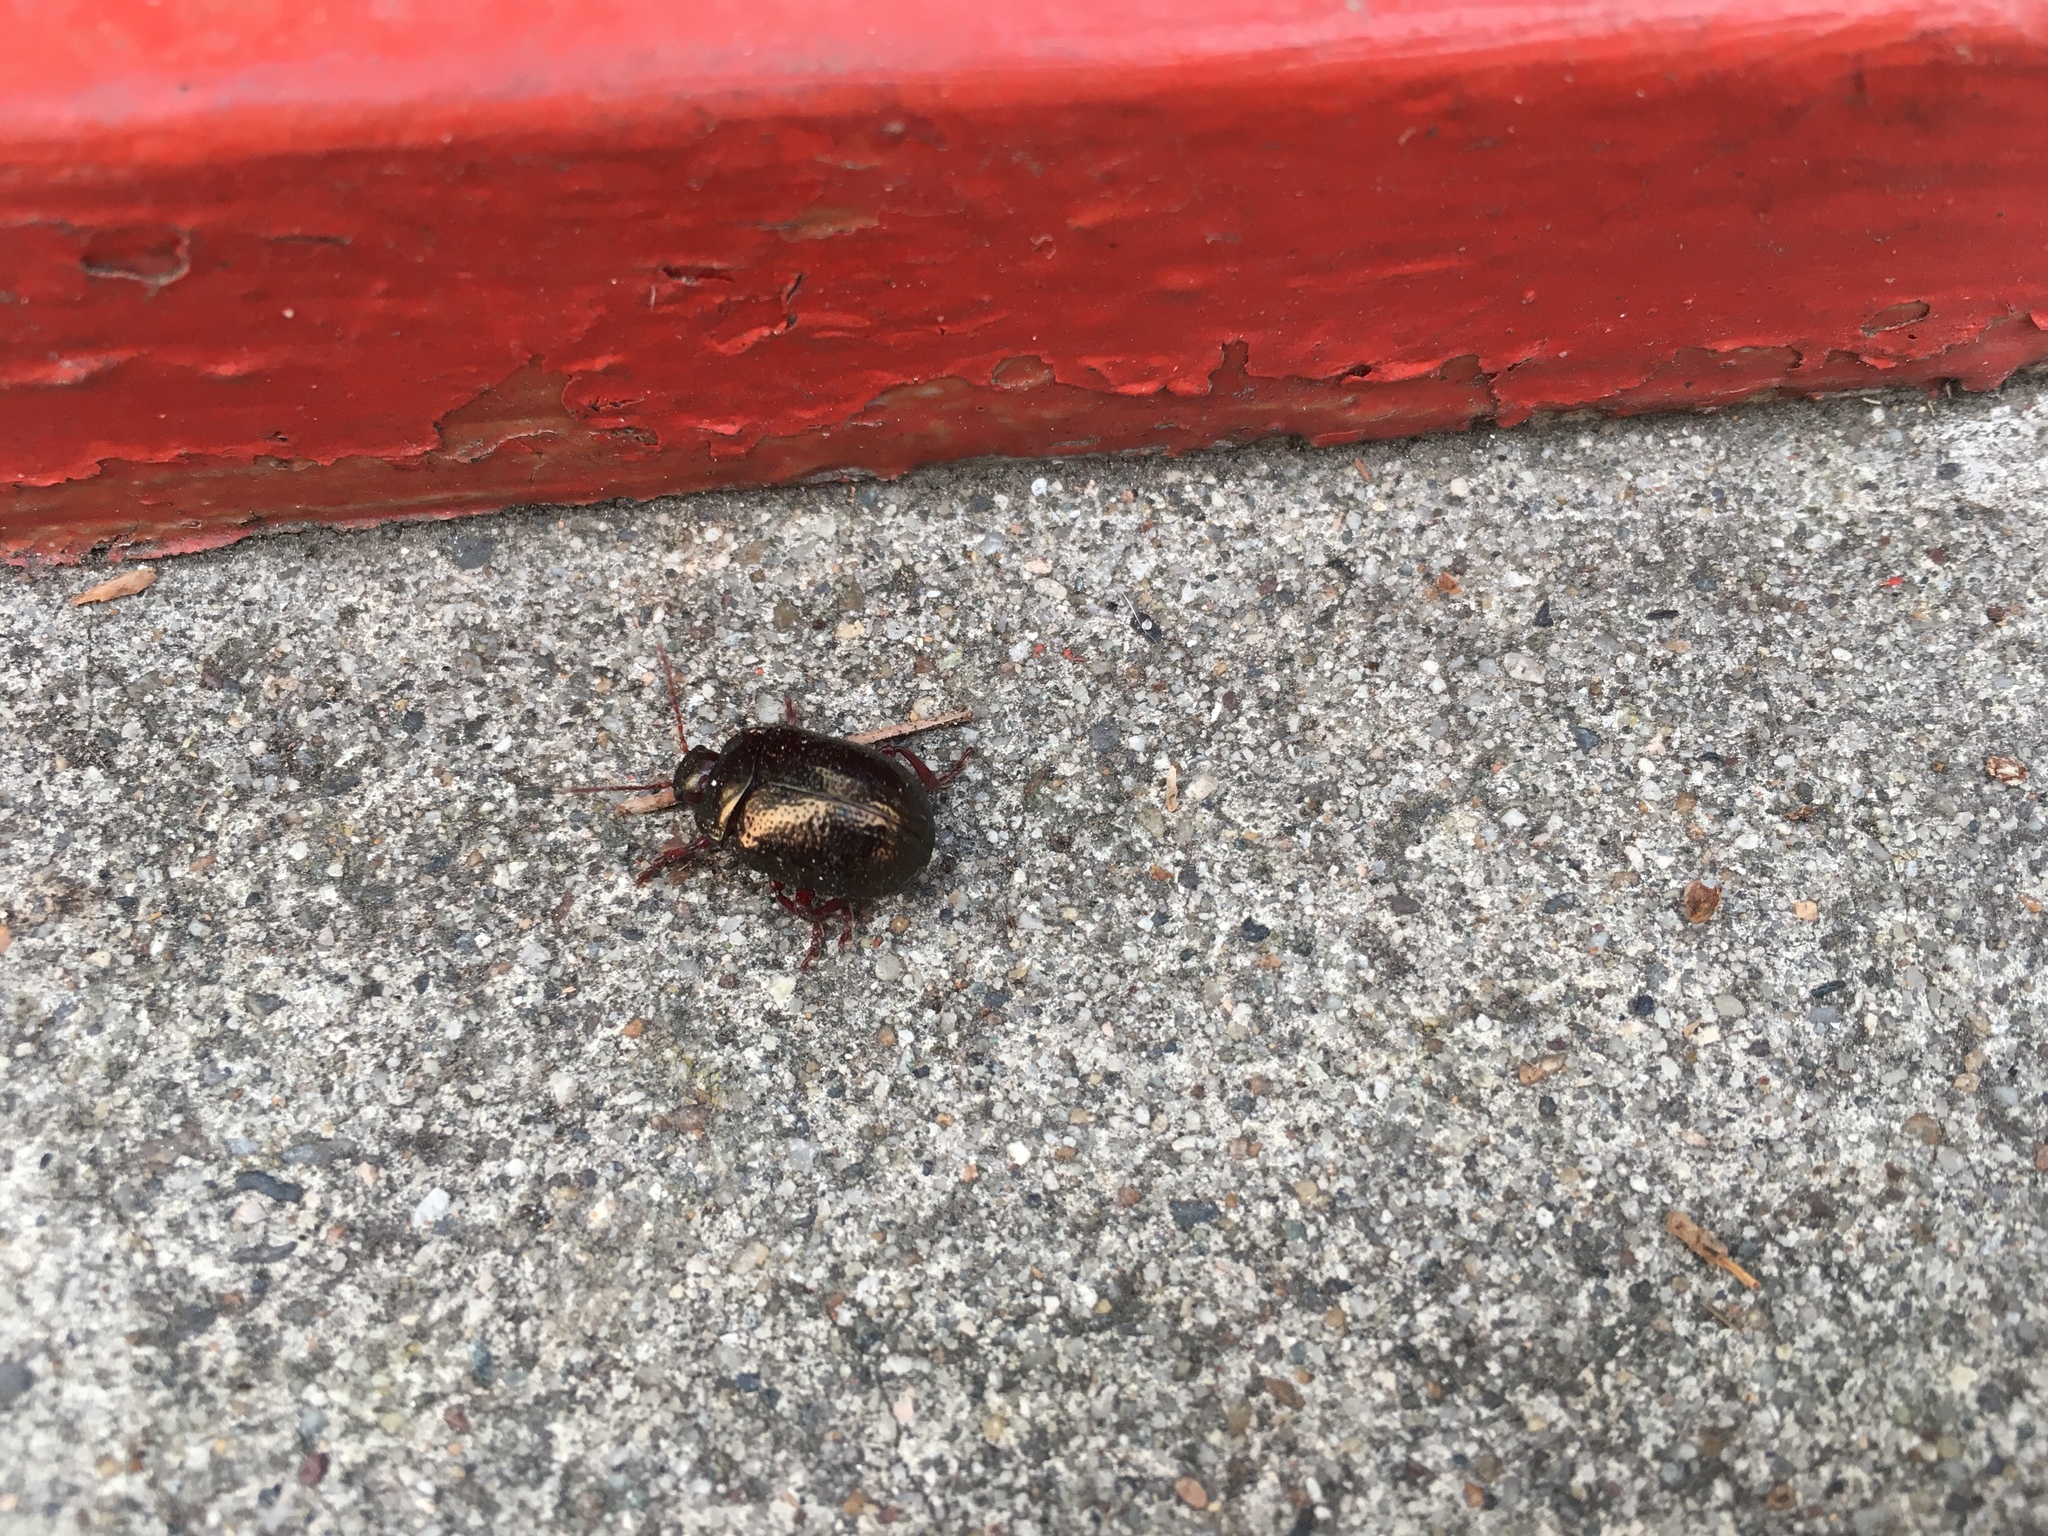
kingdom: Animalia
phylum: Arthropoda
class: Insecta
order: Coleoptera
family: Chrysomelidae
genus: Chrysolina
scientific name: Chrysolina bankii
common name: Leaf beetle
